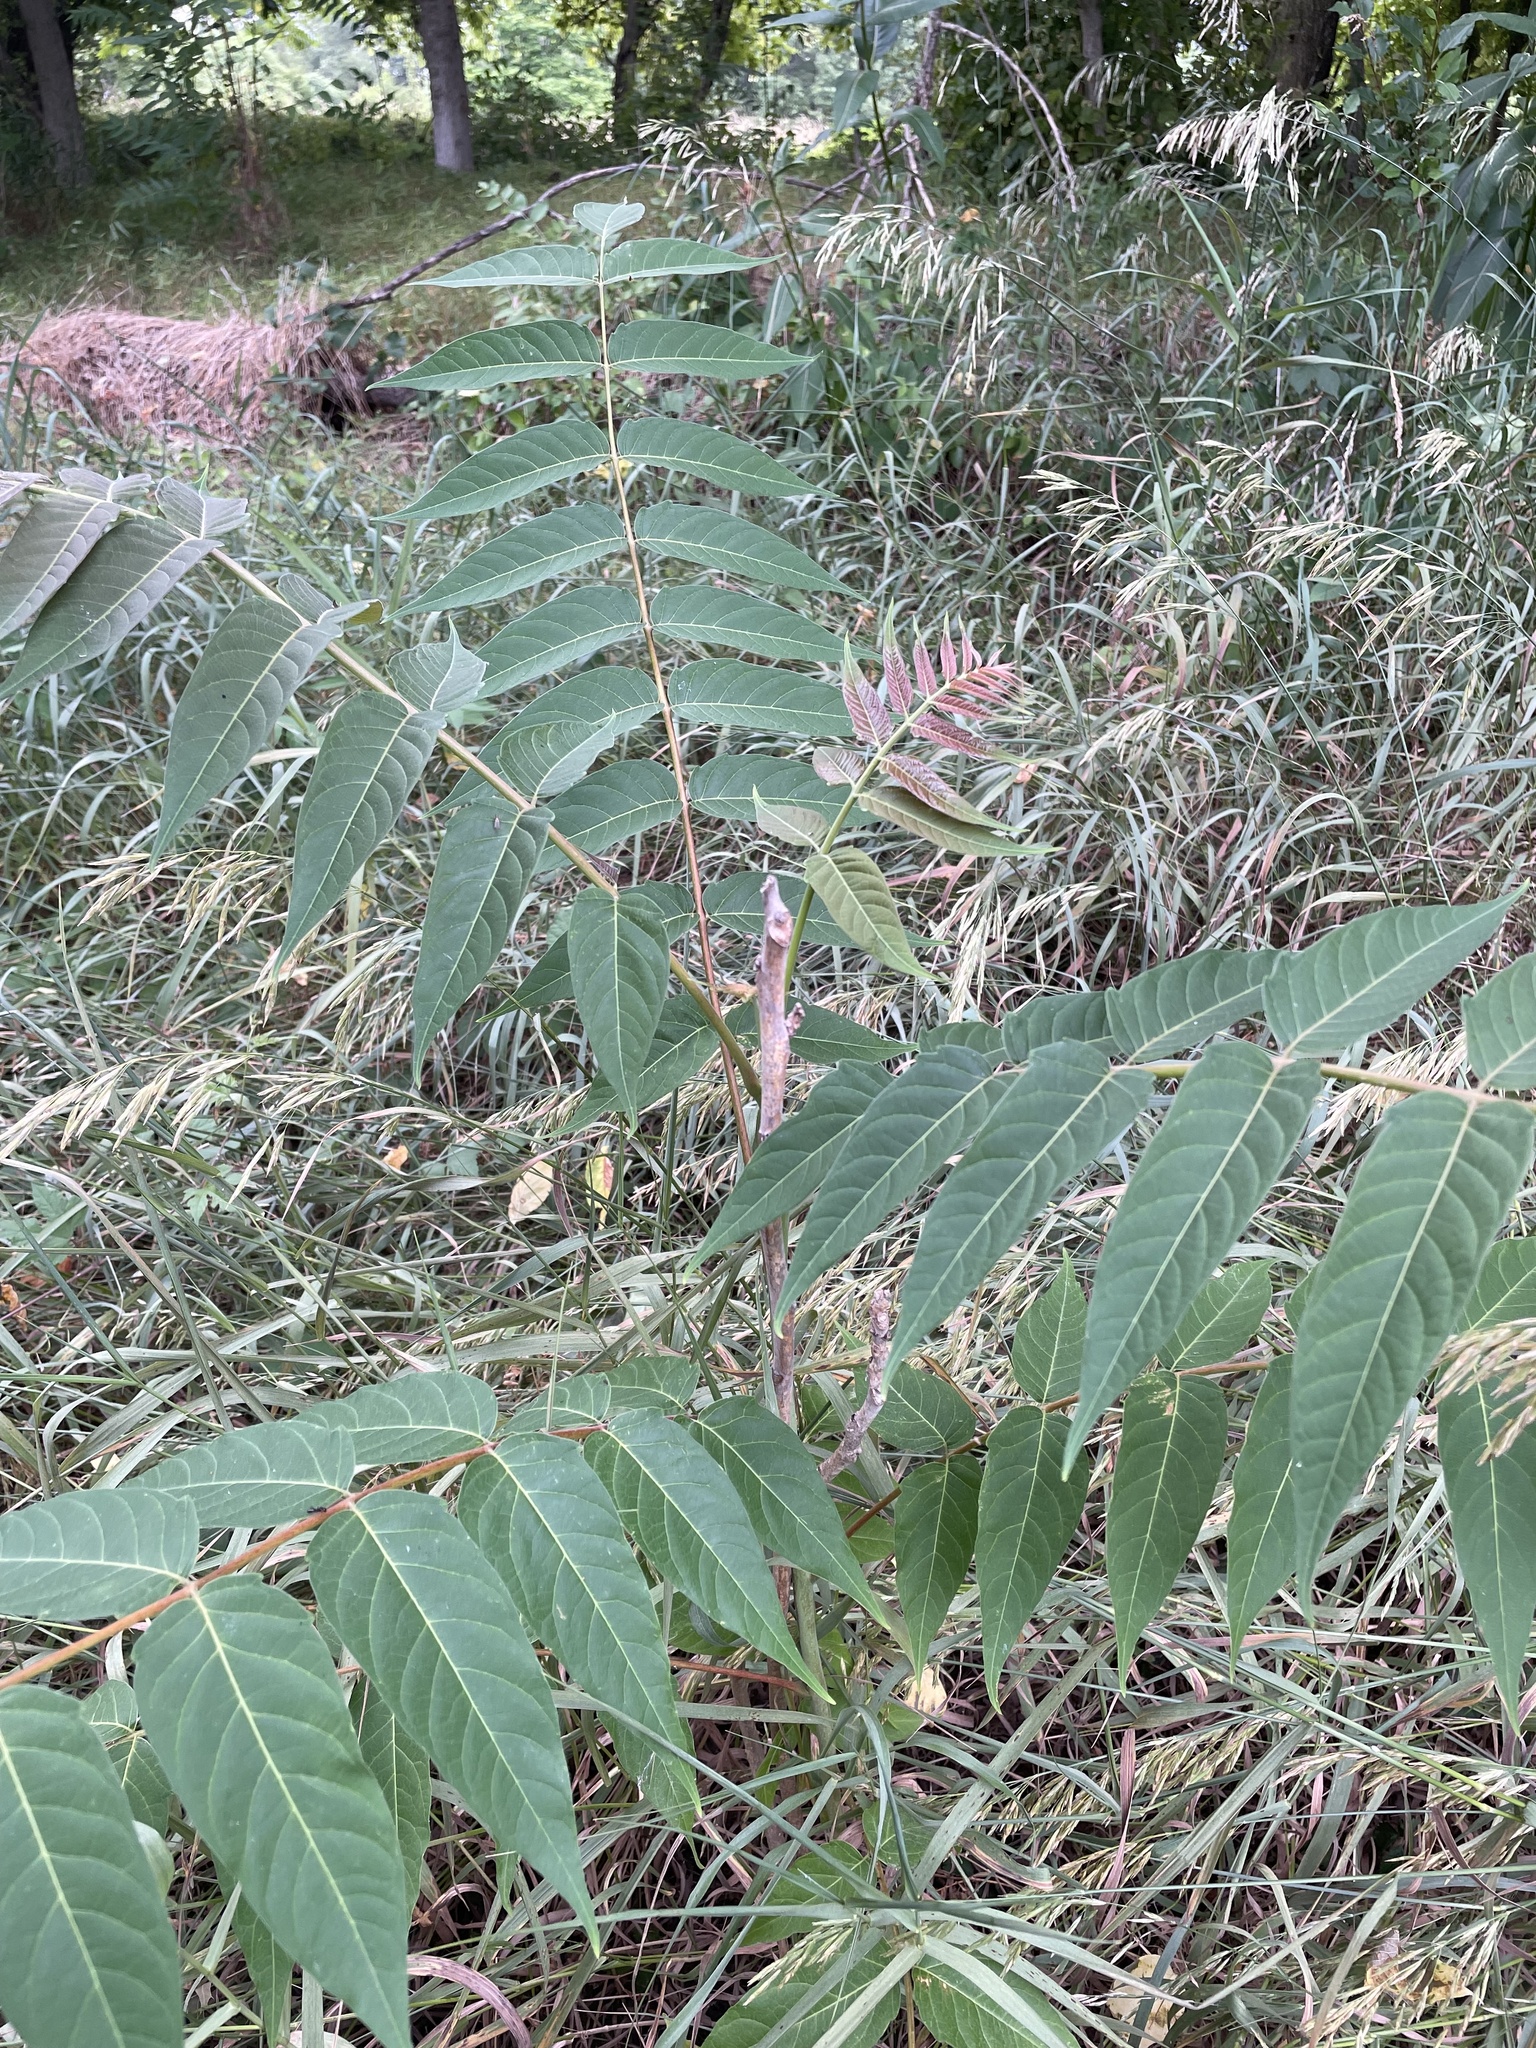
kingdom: Plantae
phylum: Tracheophyta
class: Magnoliopsida
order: Sapindales
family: Simaroubaceae
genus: Ailanthus
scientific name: Ailanthus altissima
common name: Tree-of-heaven
